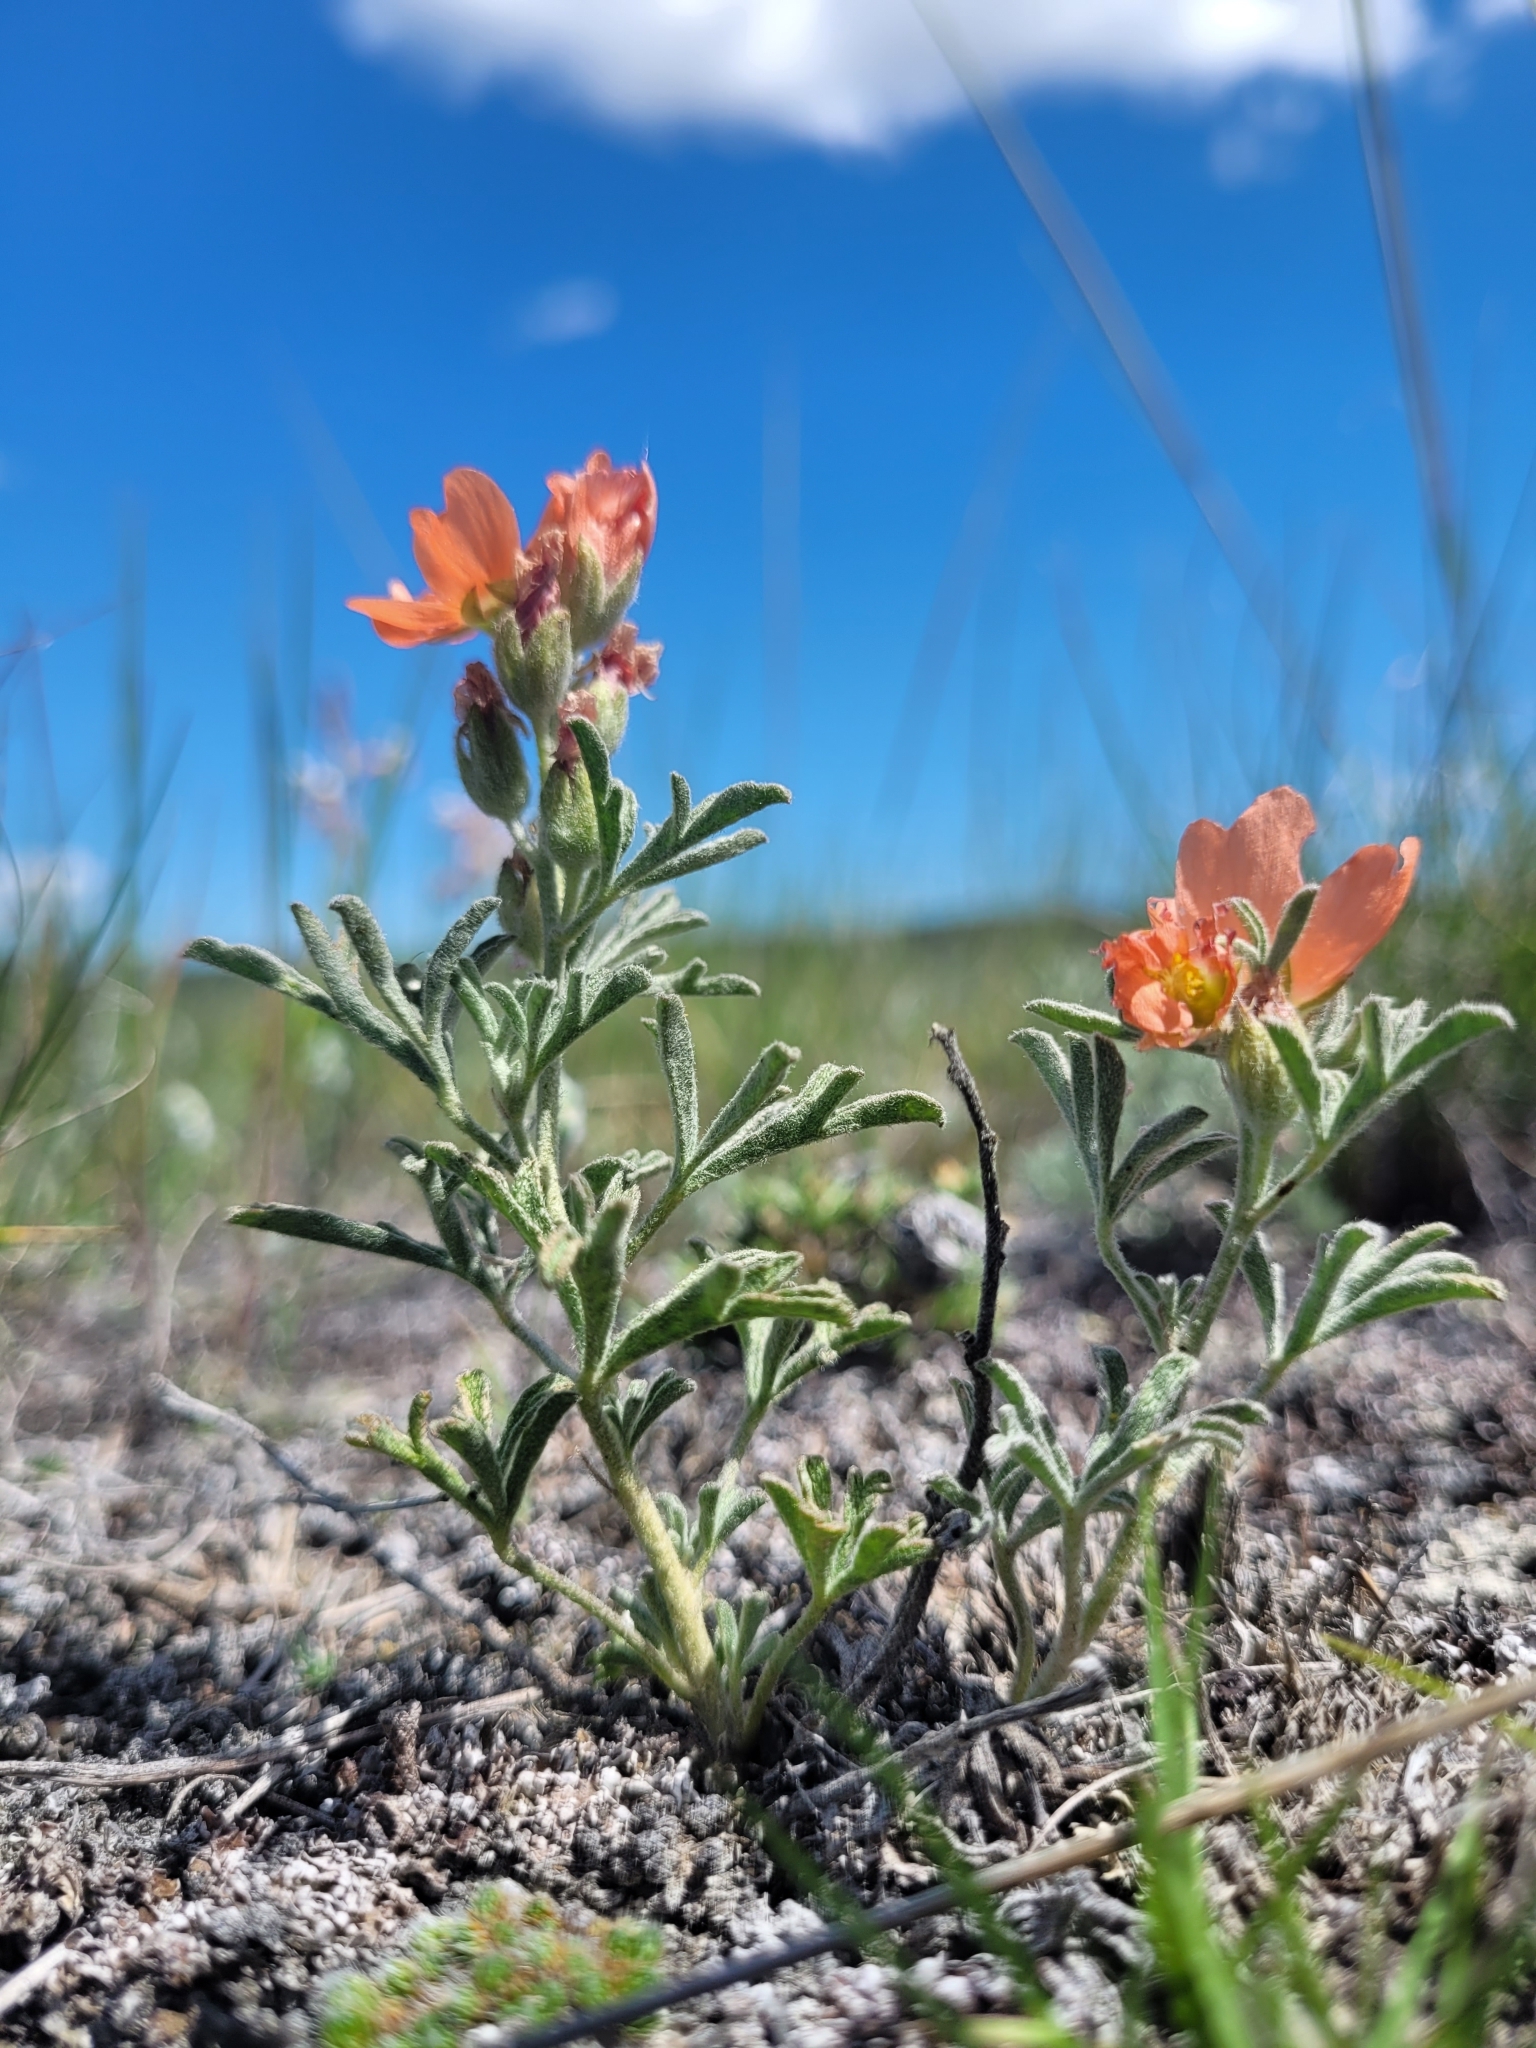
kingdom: Plantae
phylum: Tracheophyta
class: Magnoliopsida
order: Malvales
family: Malvaceae
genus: Sphaeralcea
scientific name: Sphaeralcea coccinea
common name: Moss-rose
